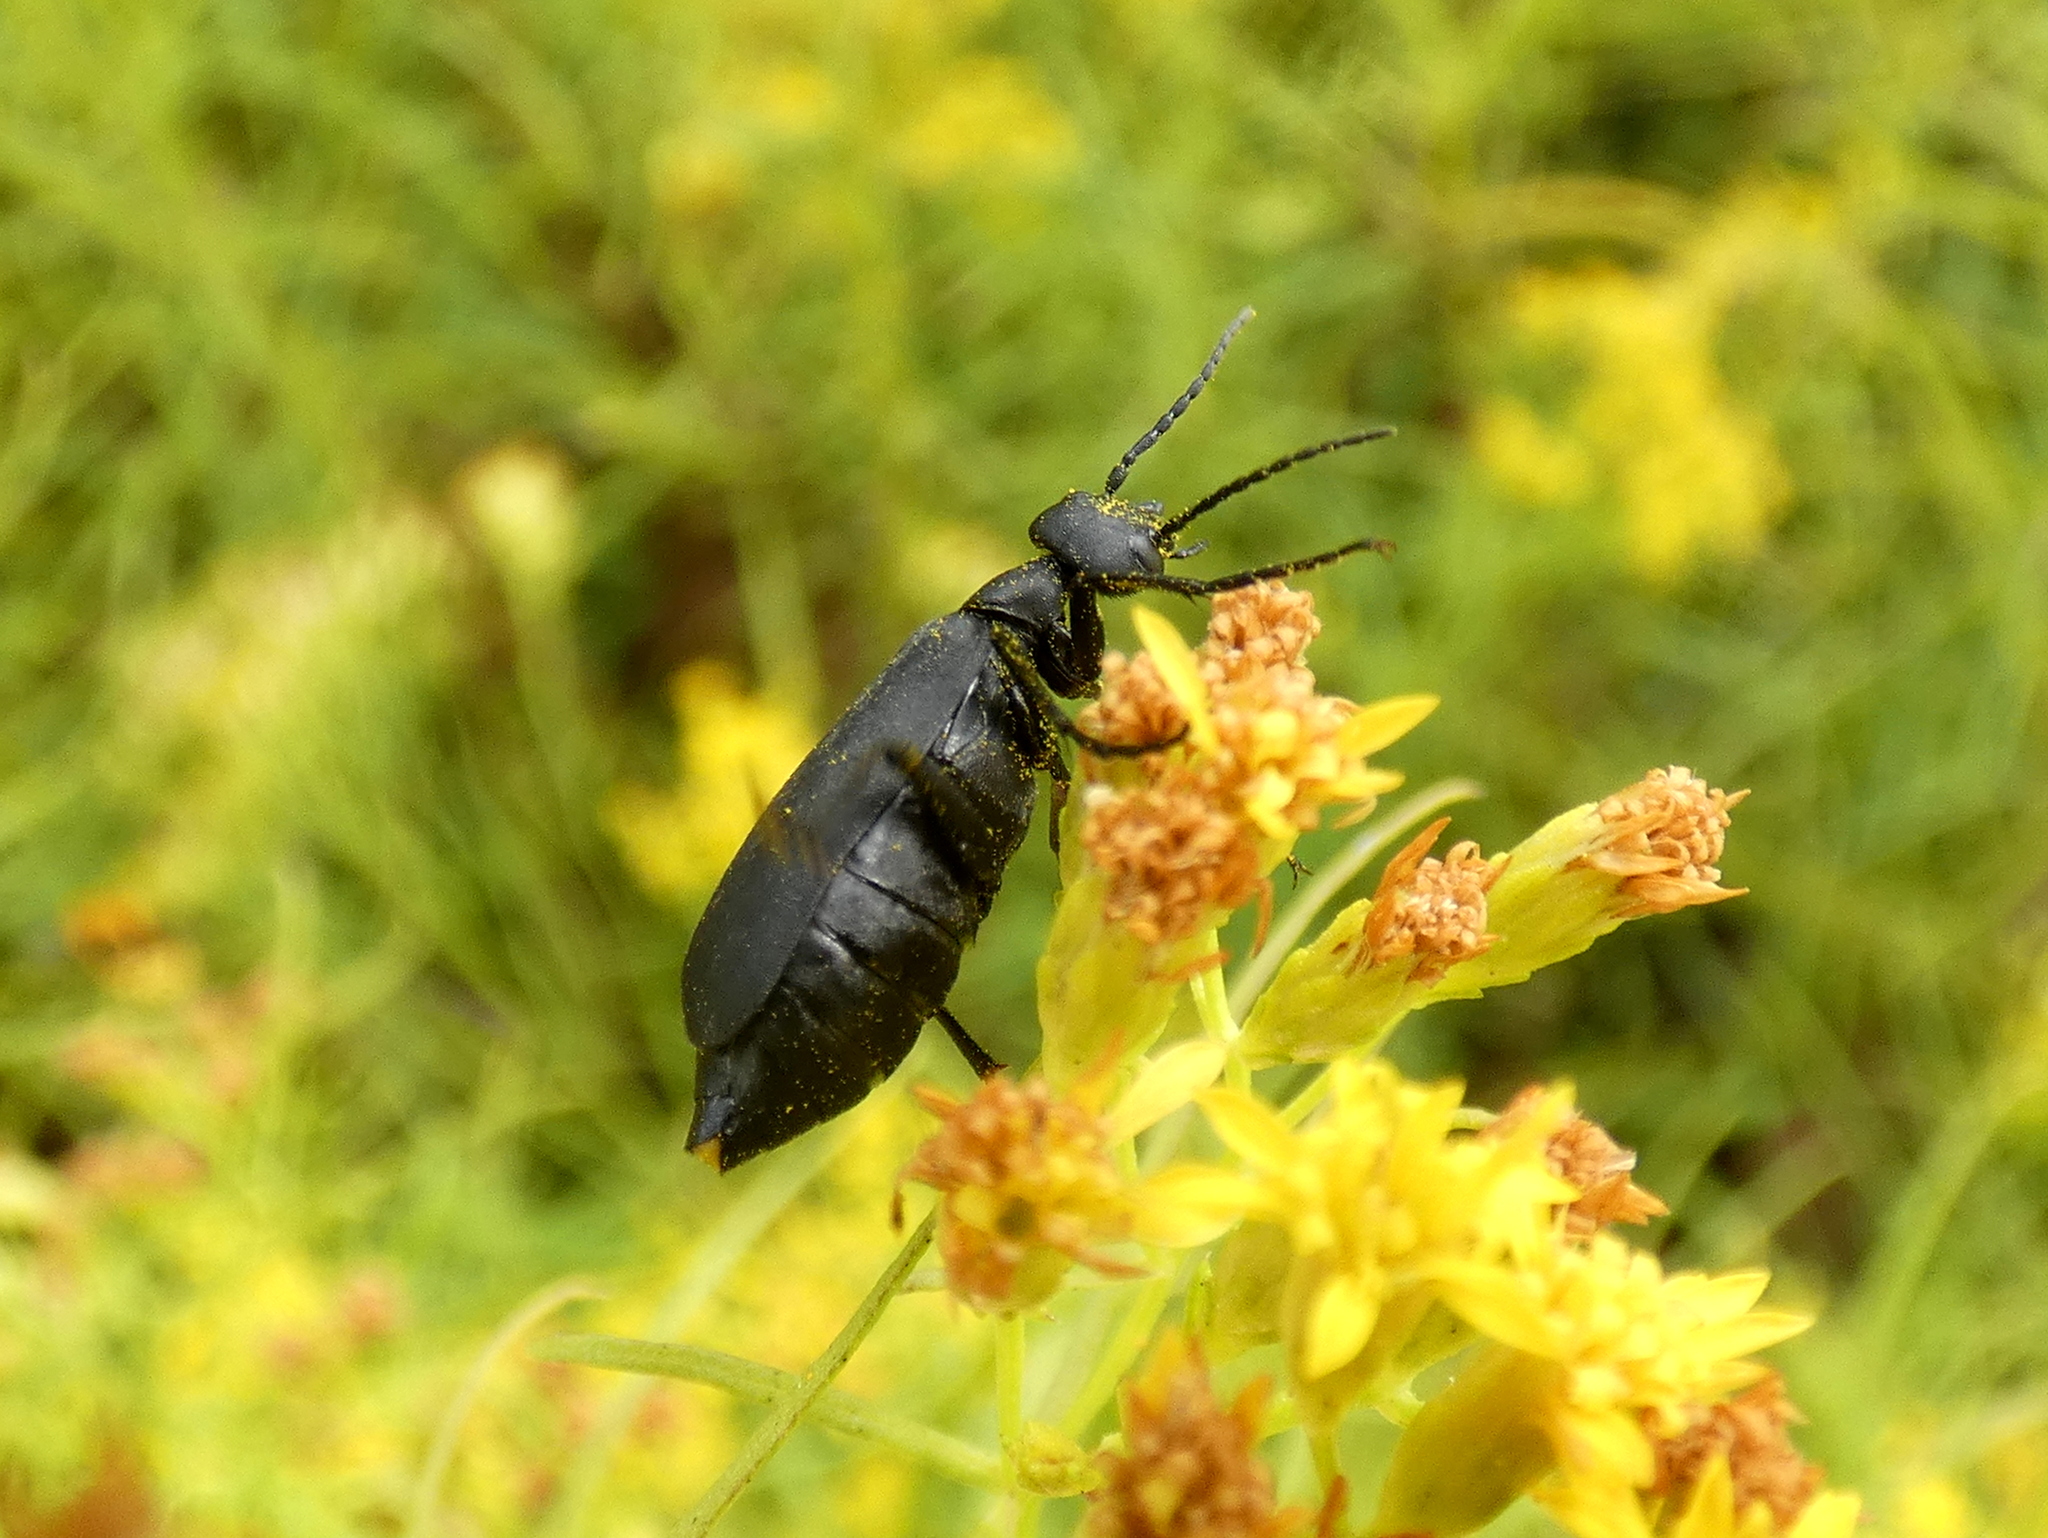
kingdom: Animalia
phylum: Arthropoda
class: Insecta
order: Coleoptera
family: Meloidae
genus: Epicauta
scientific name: Epicauta pensylvanica
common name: Black blister beetle
